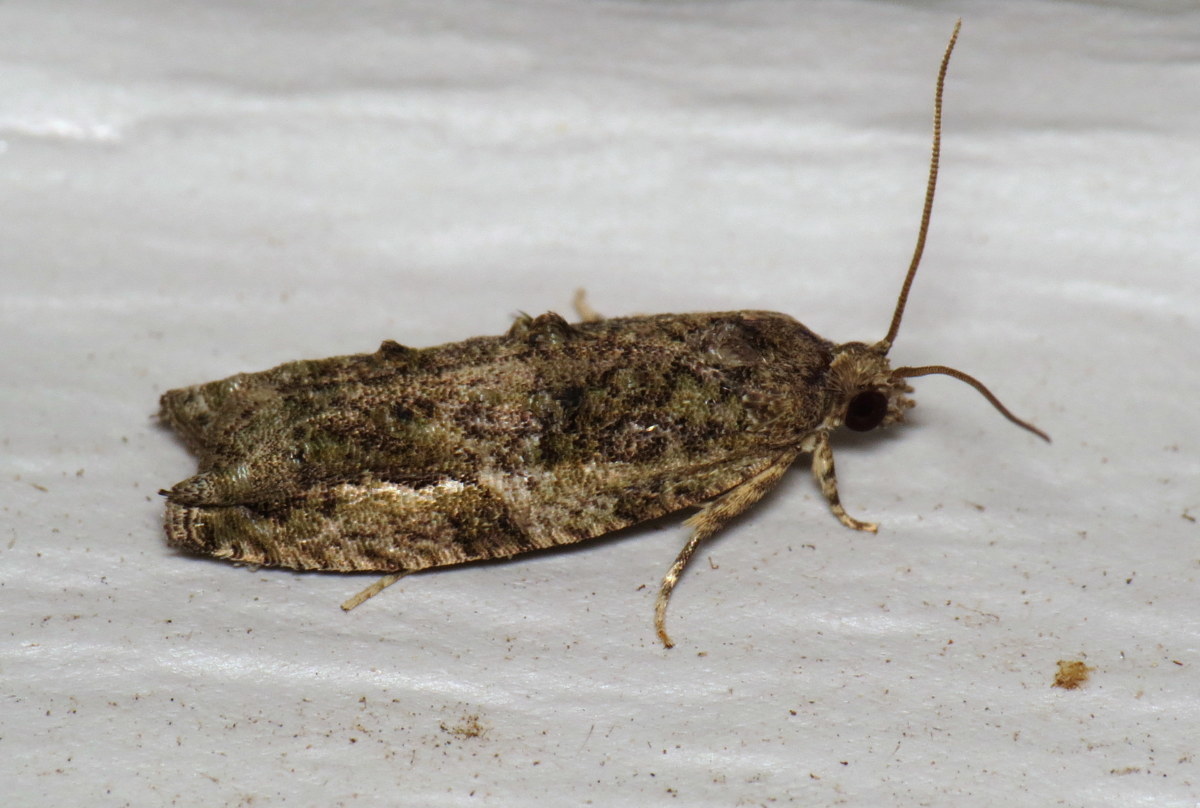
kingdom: Animalia
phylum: Arthropoda
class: Insecta
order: Lepidoptera
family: Tortricidae
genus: Proteoteras
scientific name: Proteoteras aesculana
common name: Maple twig borer moth
